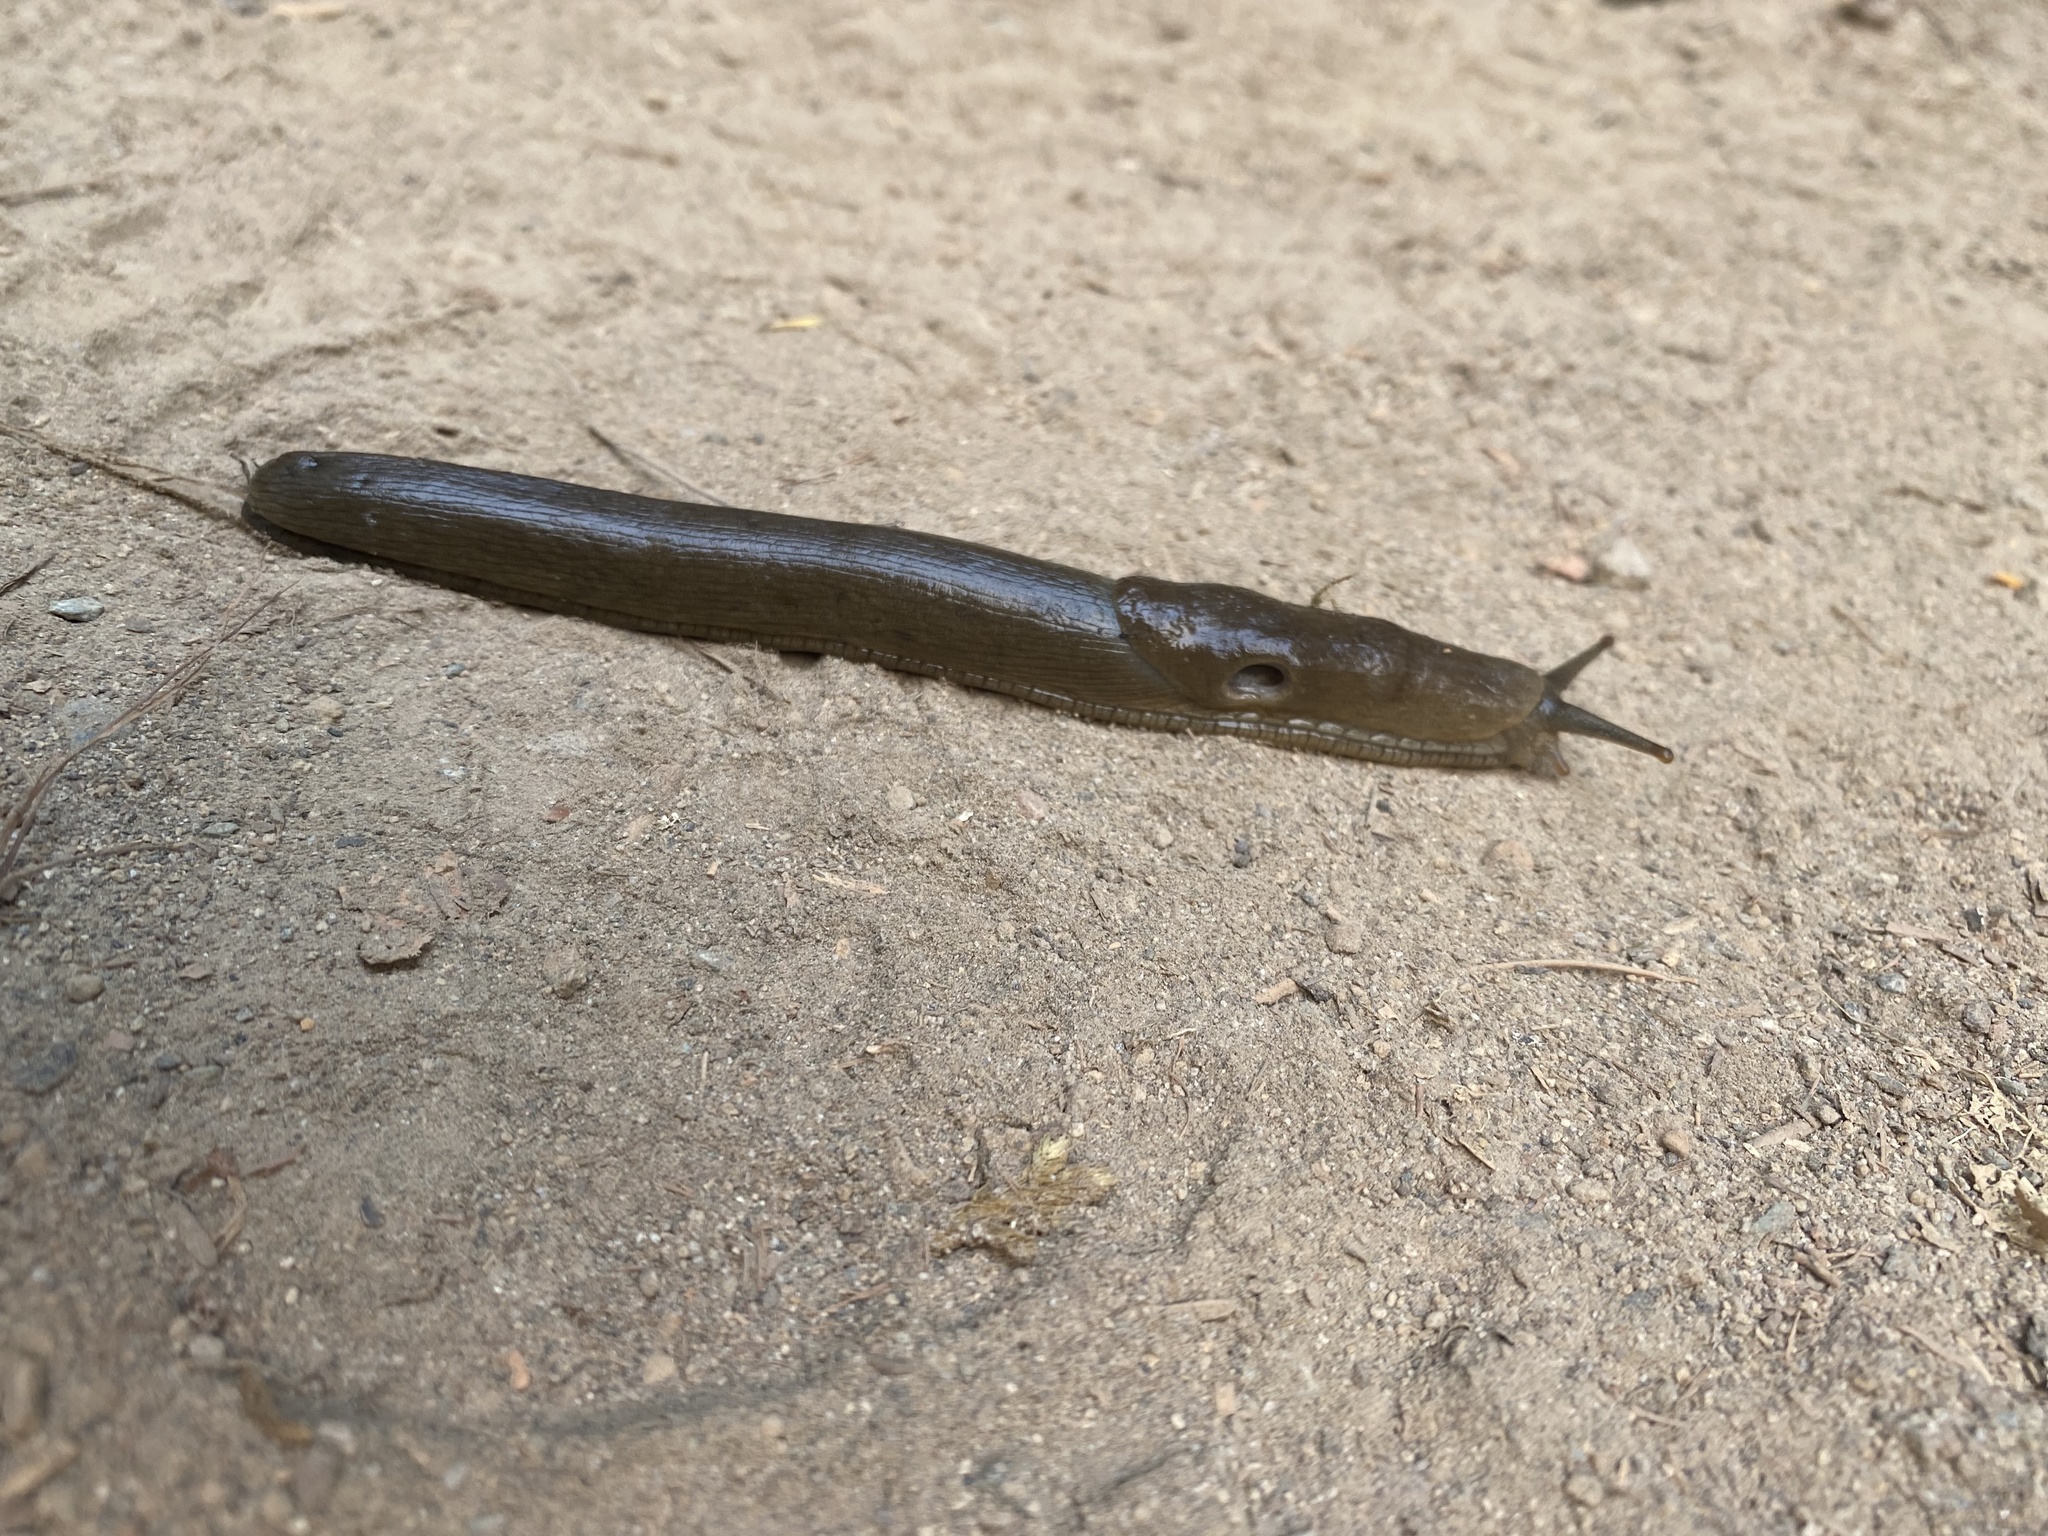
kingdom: Animalia
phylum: Mollusca
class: Gastropoda
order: Stylommatophora
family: Ariolimacidae
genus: Ariolimax
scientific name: Ariolimax columbianus
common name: Pacific banana slug
